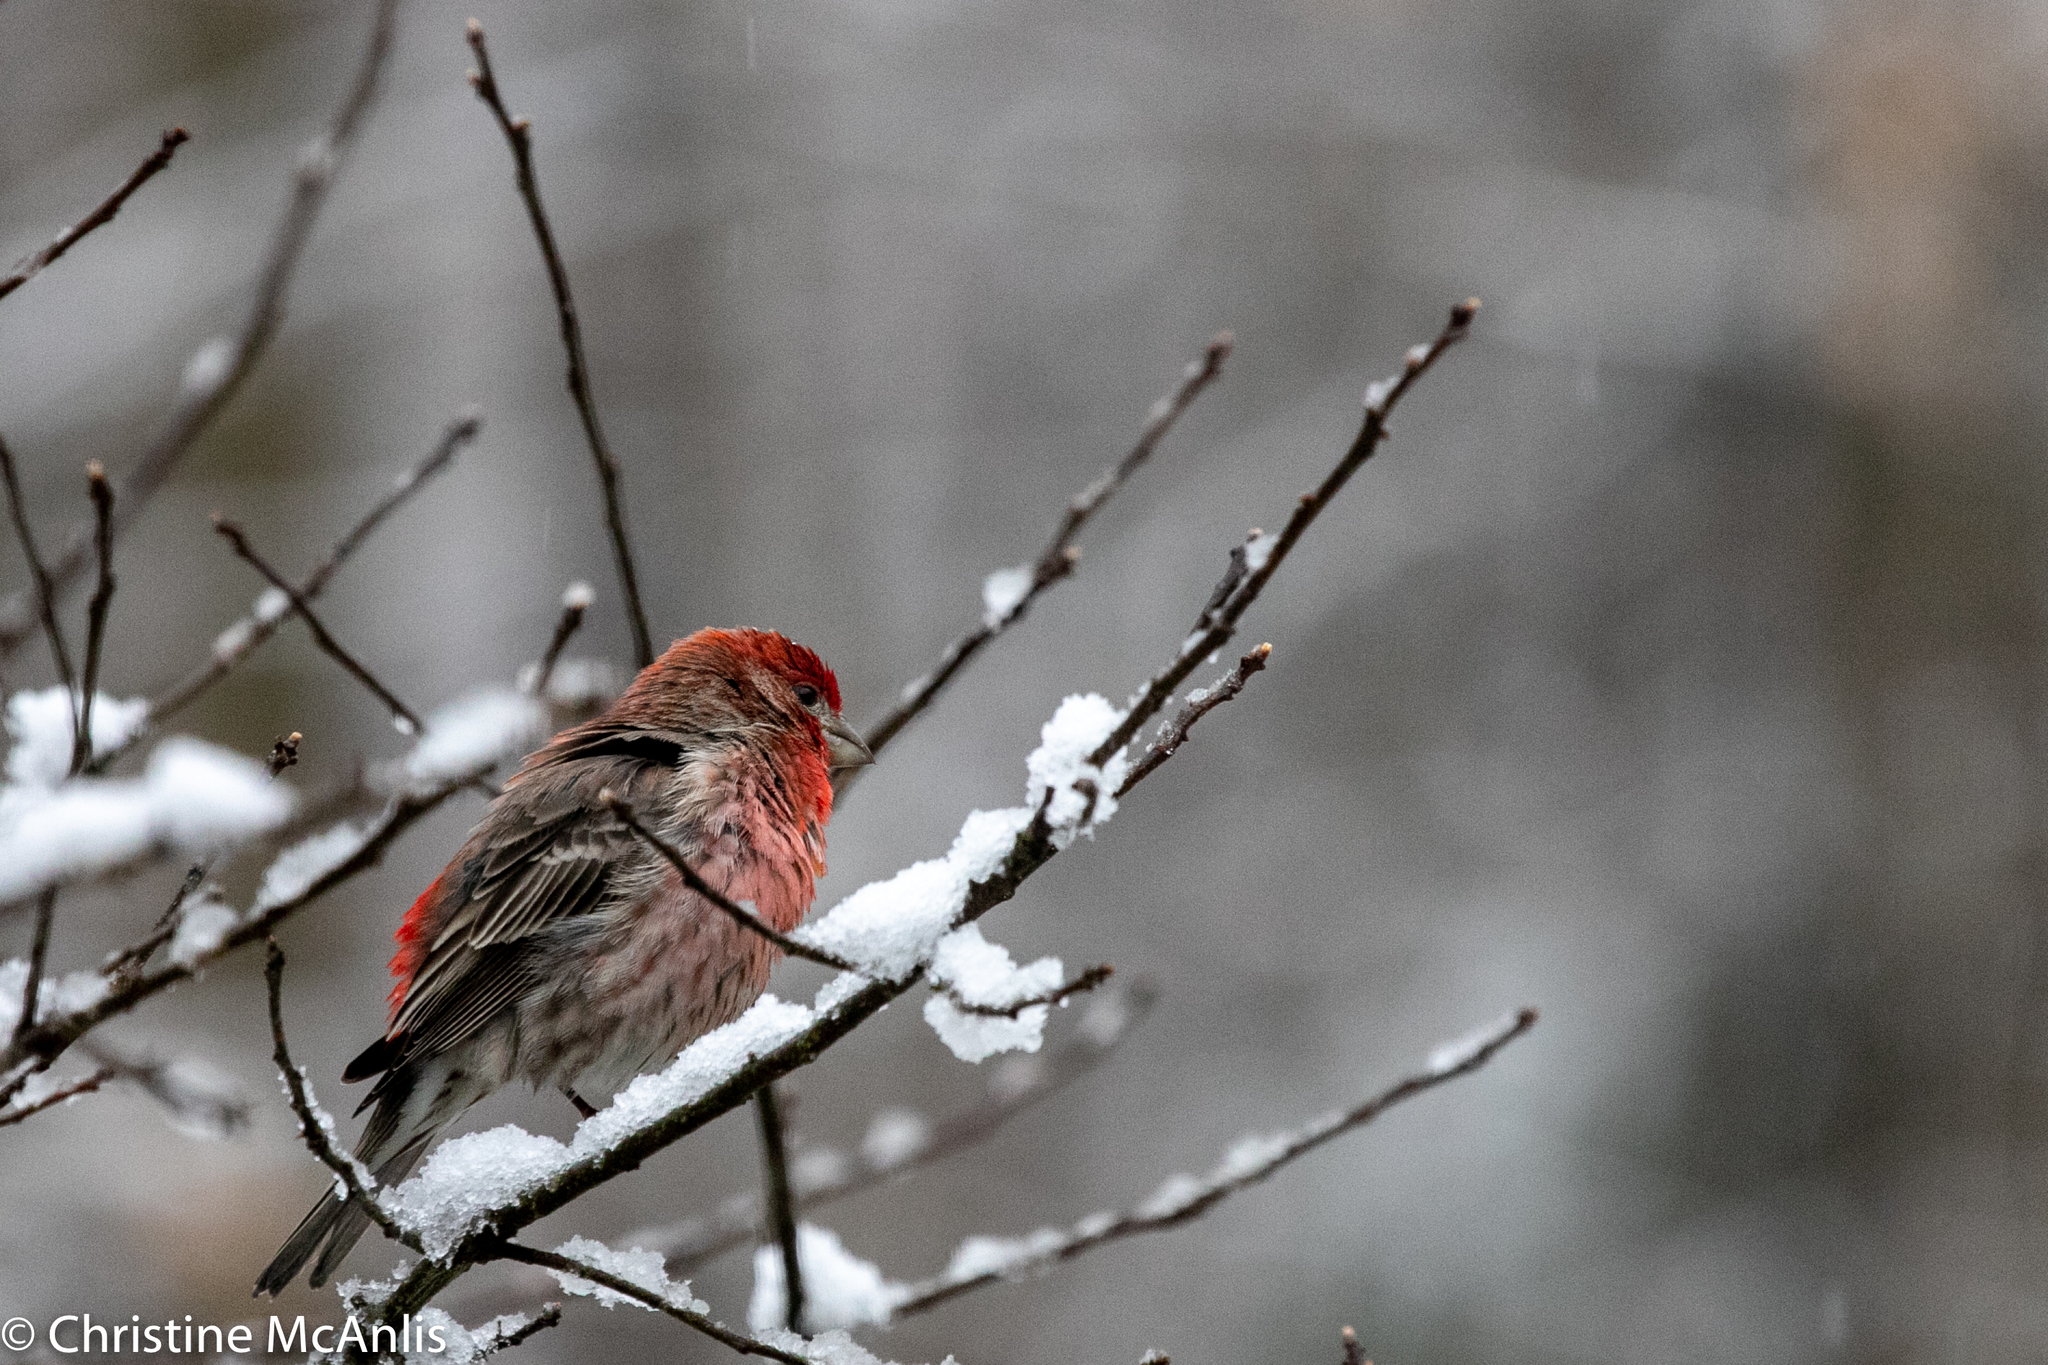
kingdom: Animalia
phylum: Chordata
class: Aves
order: Passeriformes
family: Fringillidae
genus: Haemorhous
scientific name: Haemorhous mexicanus
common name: House finch
